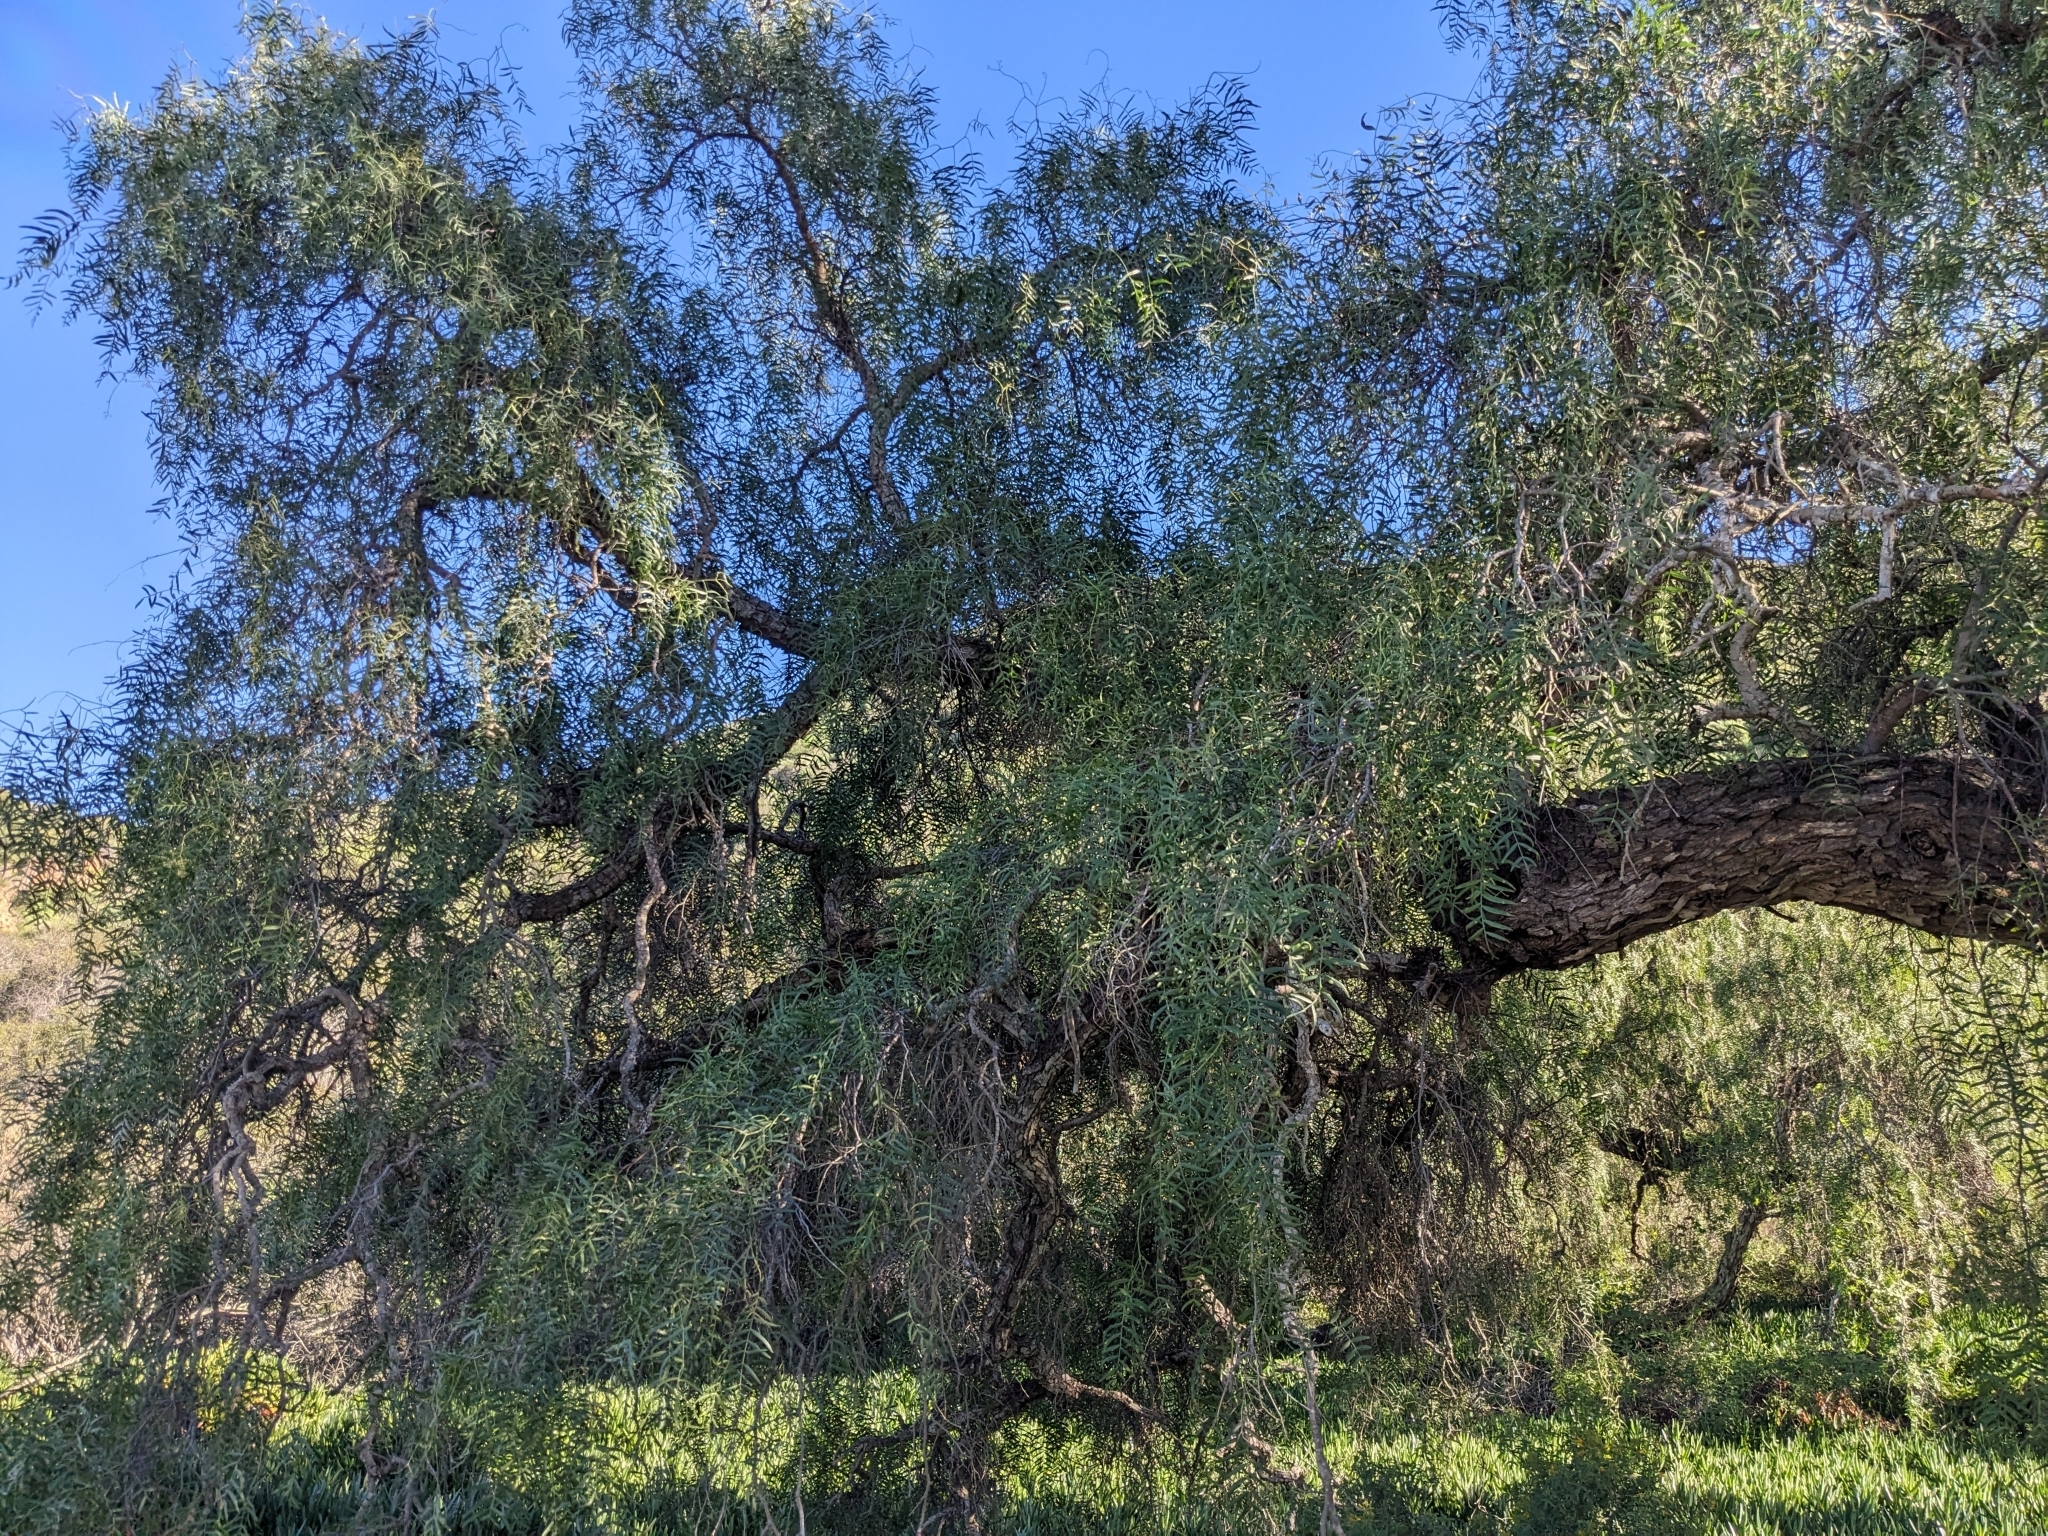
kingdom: Plantae
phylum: Tracheophyta
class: Magnoliopsida
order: Sapindales
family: Anacardiaceae
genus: Schinus
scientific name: Schinus molle
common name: Peruvian peppertree
